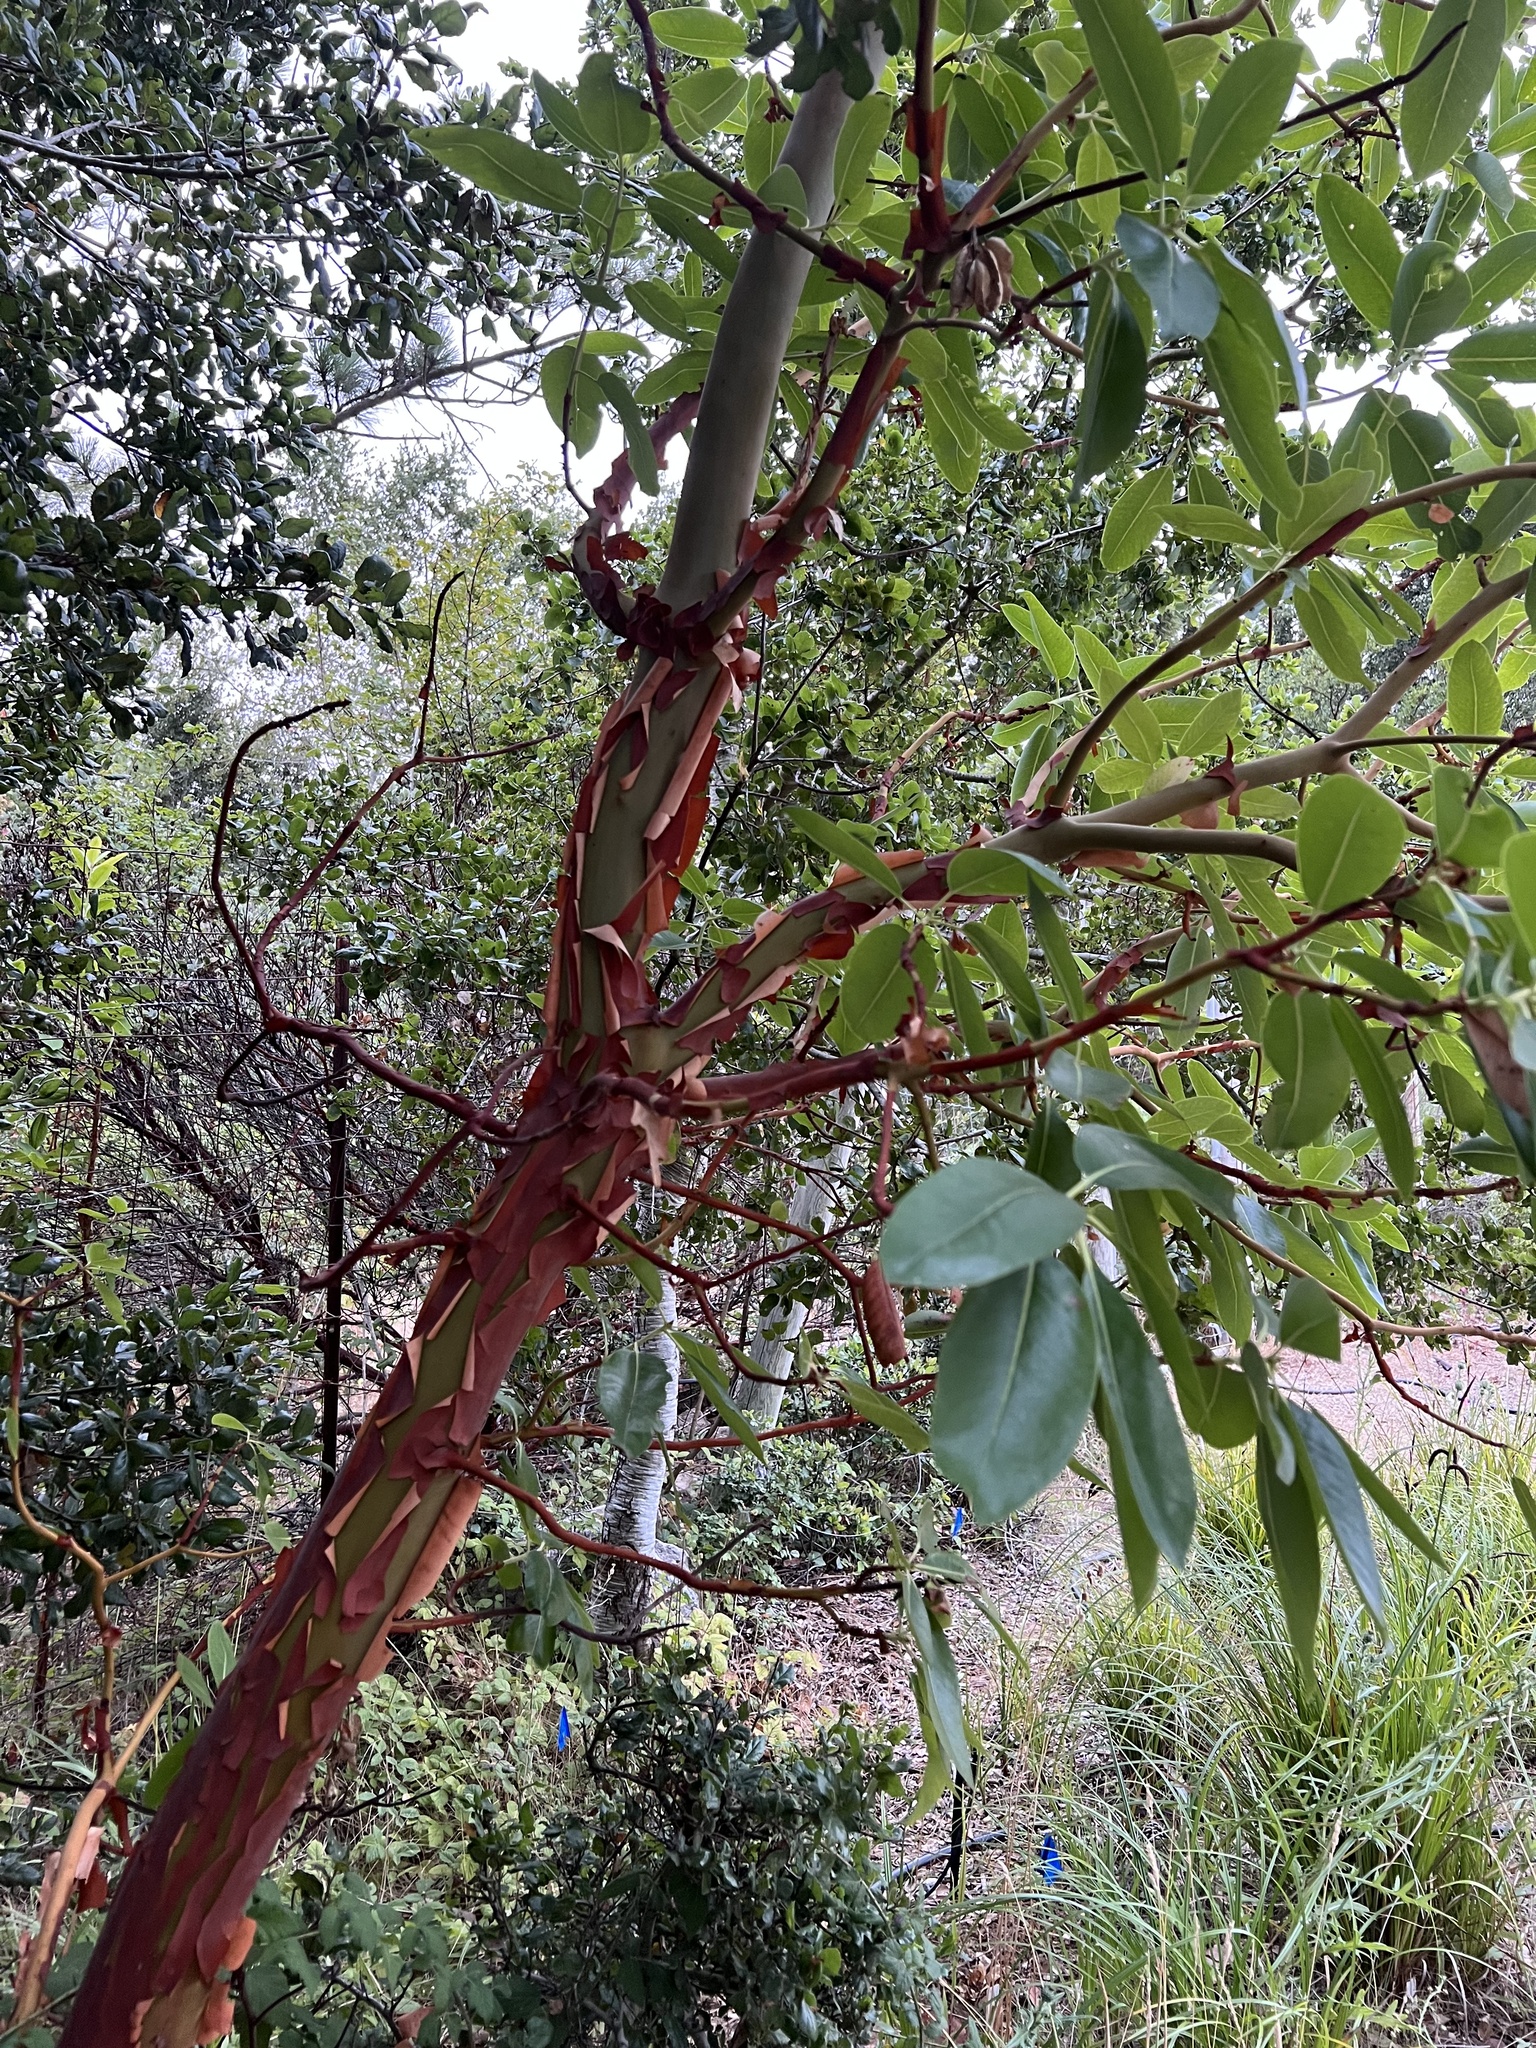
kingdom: Plantae
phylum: Tracheophyta
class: Magnoliopsida
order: Ericales
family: Ericaceae
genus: Arbutus
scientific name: Arbutus menziesii
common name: Pacific madrone
